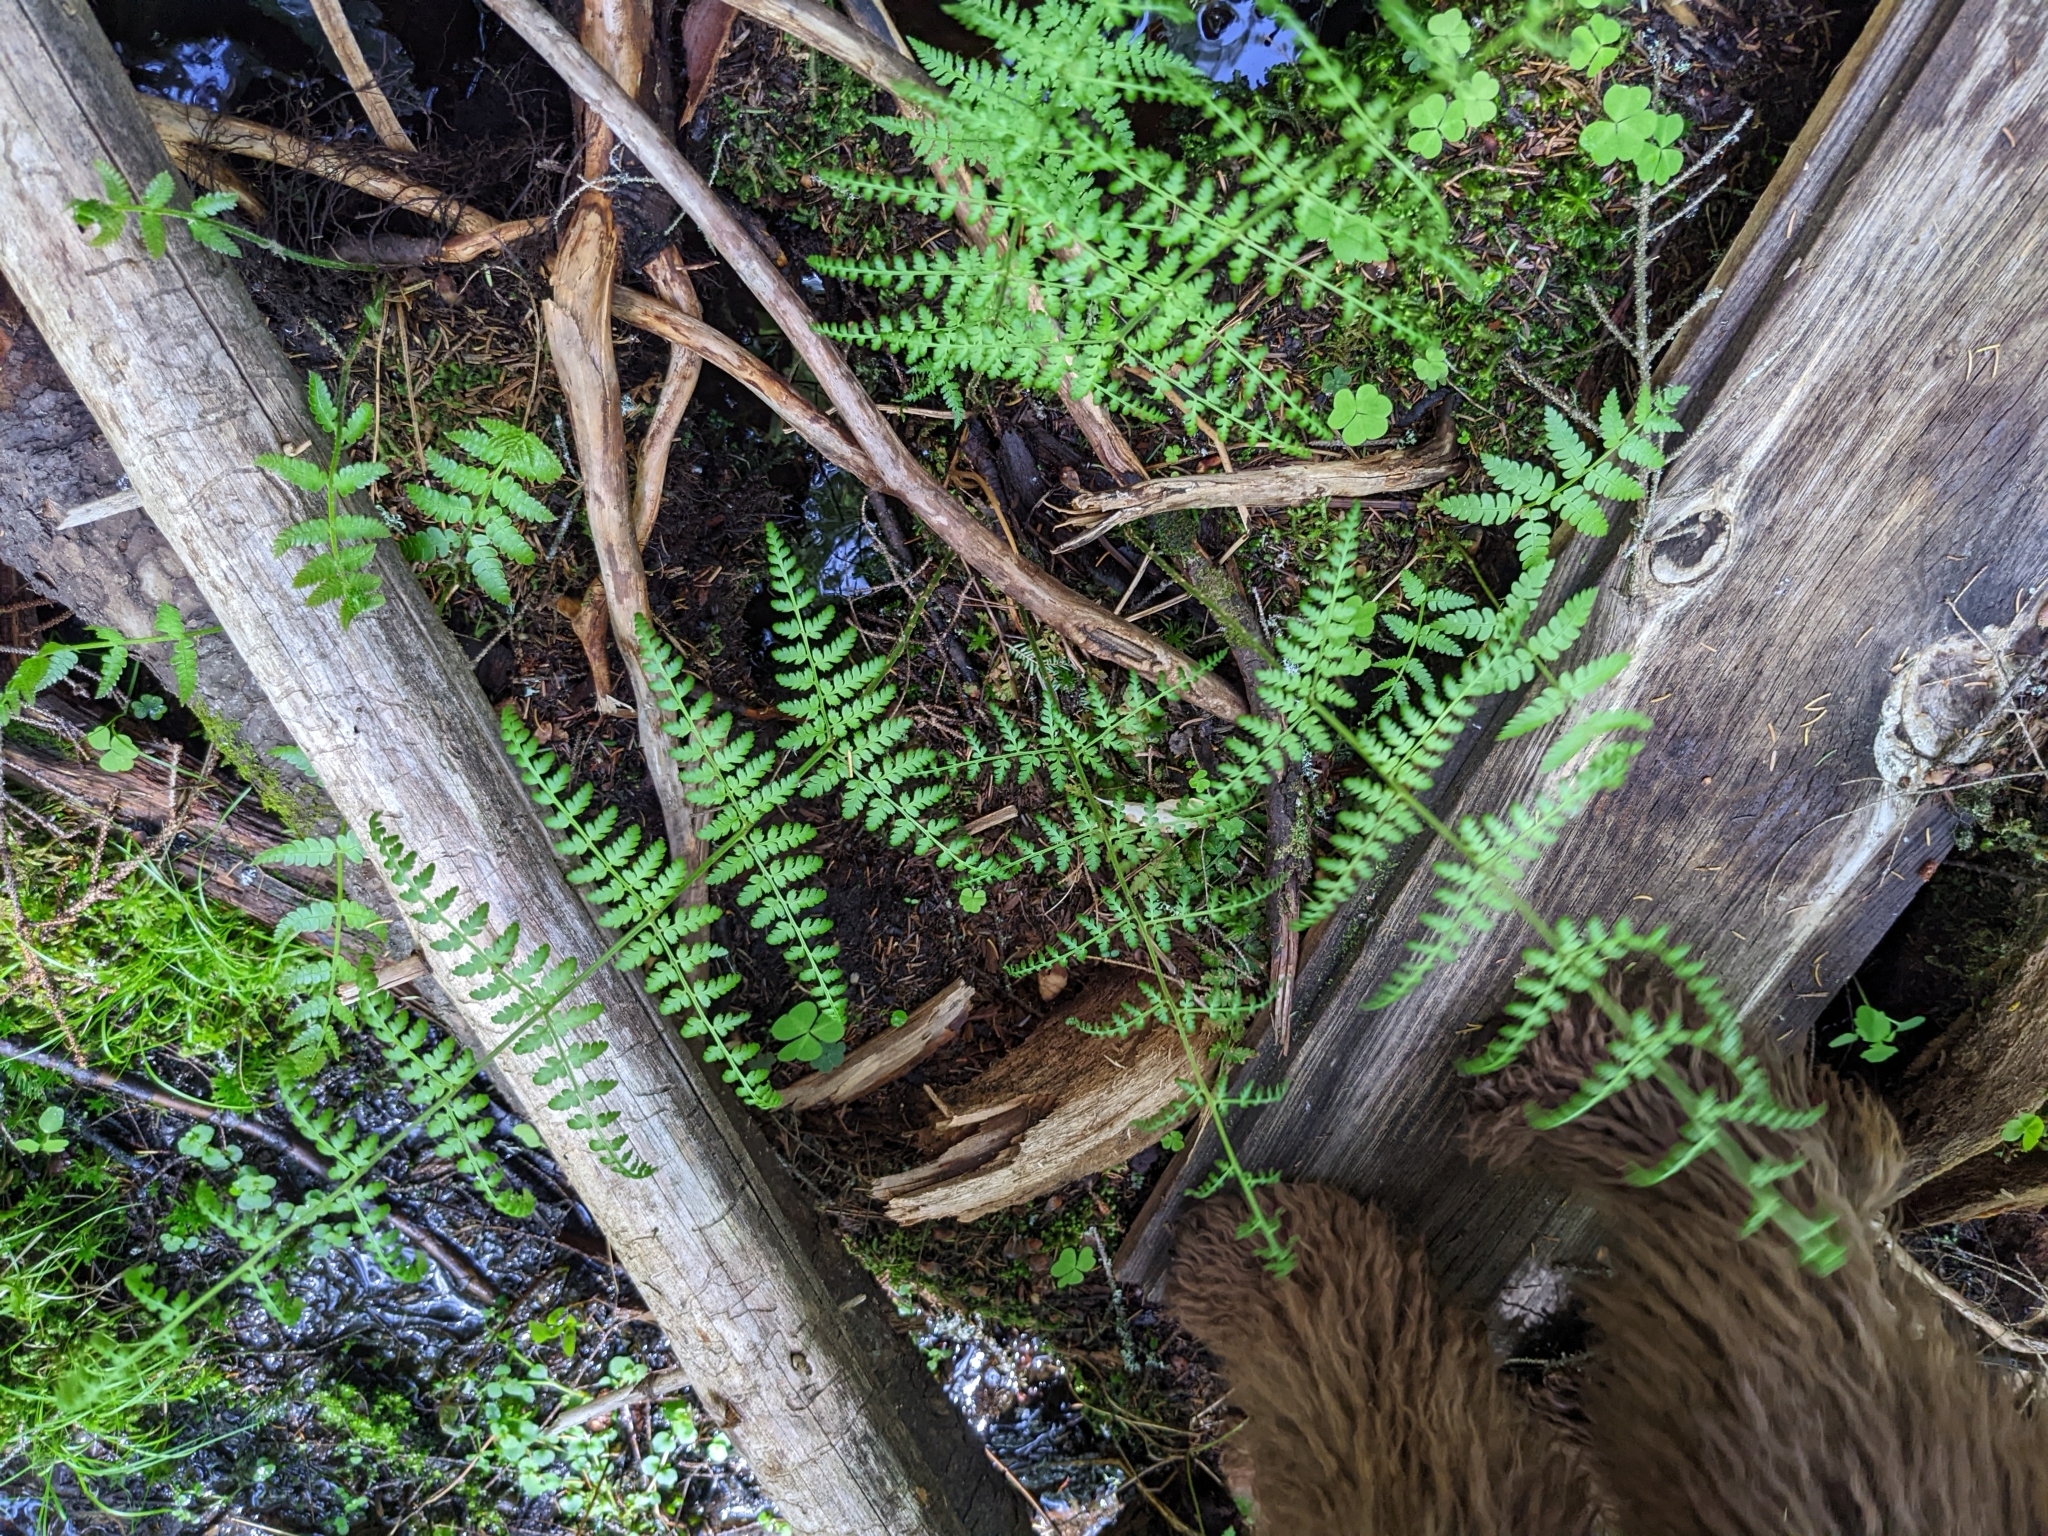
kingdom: Plantae
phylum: Tracheophyta
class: Polypodiopsida
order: Polypodiales
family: Athyriaceae
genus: Athyrium
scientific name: Athyrium angustum
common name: Northern lady fern
